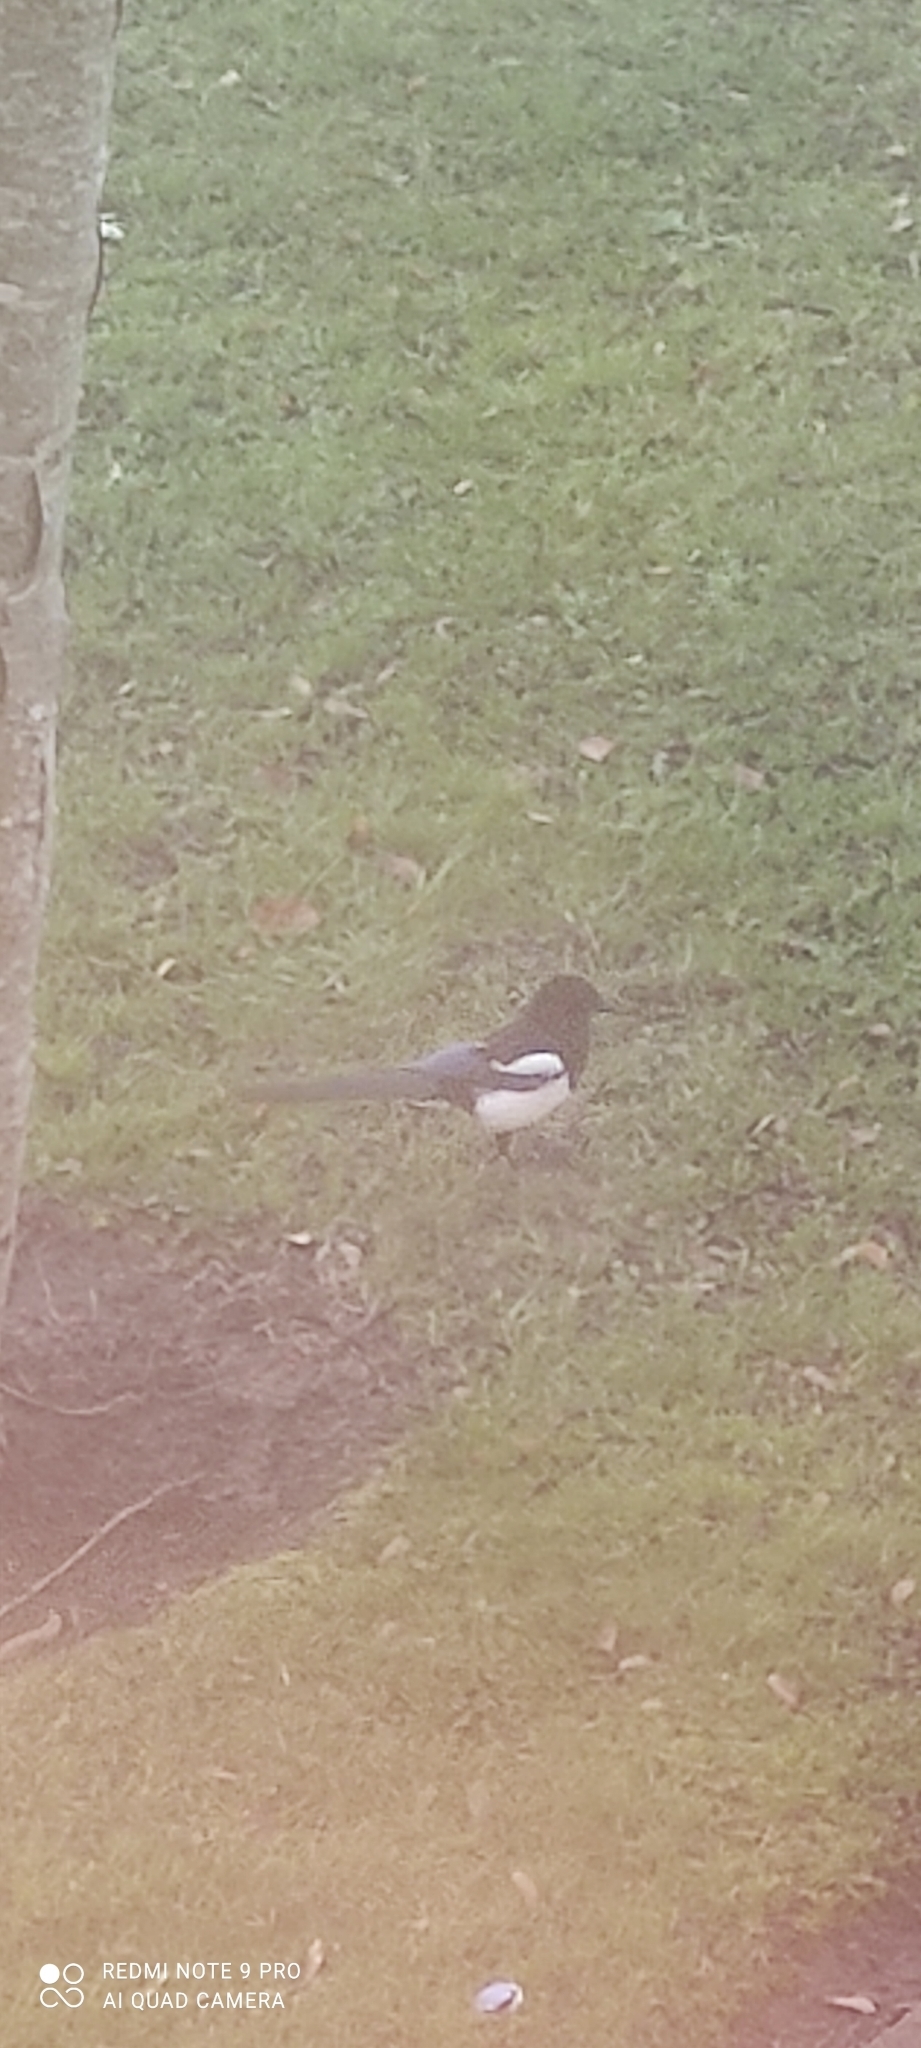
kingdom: Animalia
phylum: Chordata
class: Aves
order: Passeriformes
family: Corvidae
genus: Pica
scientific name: Pica pica
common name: Eurasian magpie
